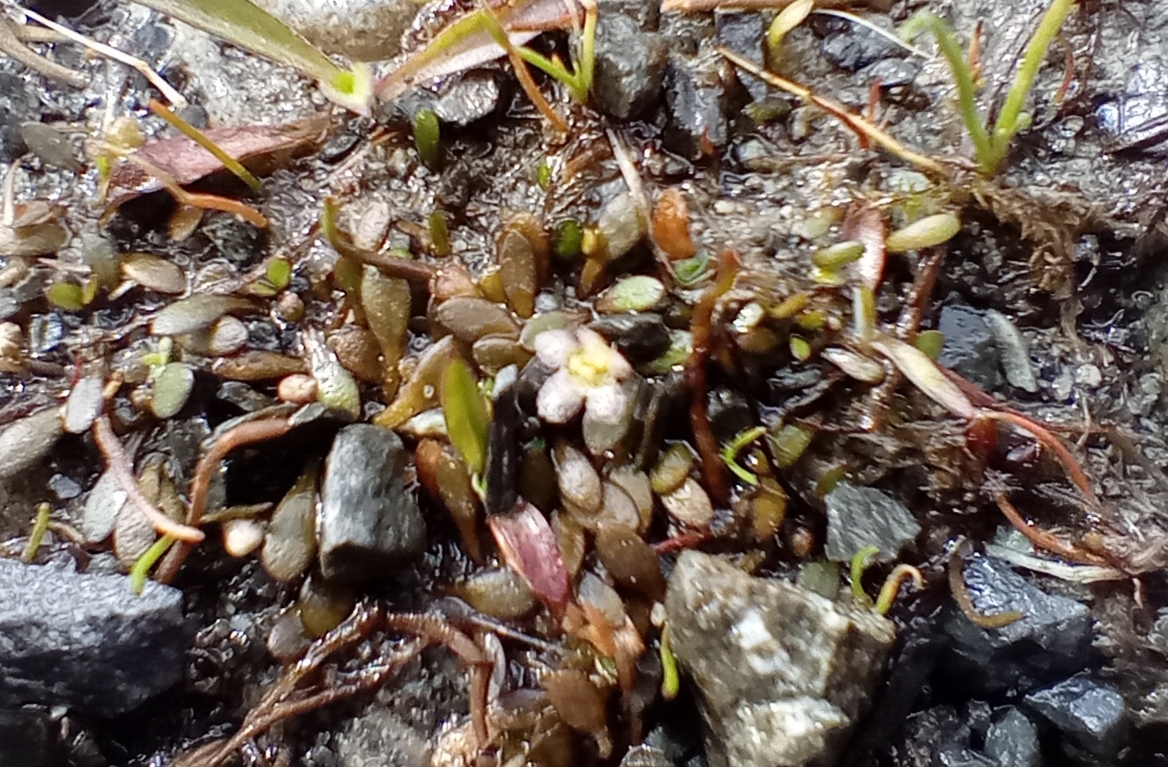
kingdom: Plantae
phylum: Tracheophyta
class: Magnoliopsida
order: Lamiales
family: Phrymaceae
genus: Glossostigma
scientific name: Glossostigma elatinoides
